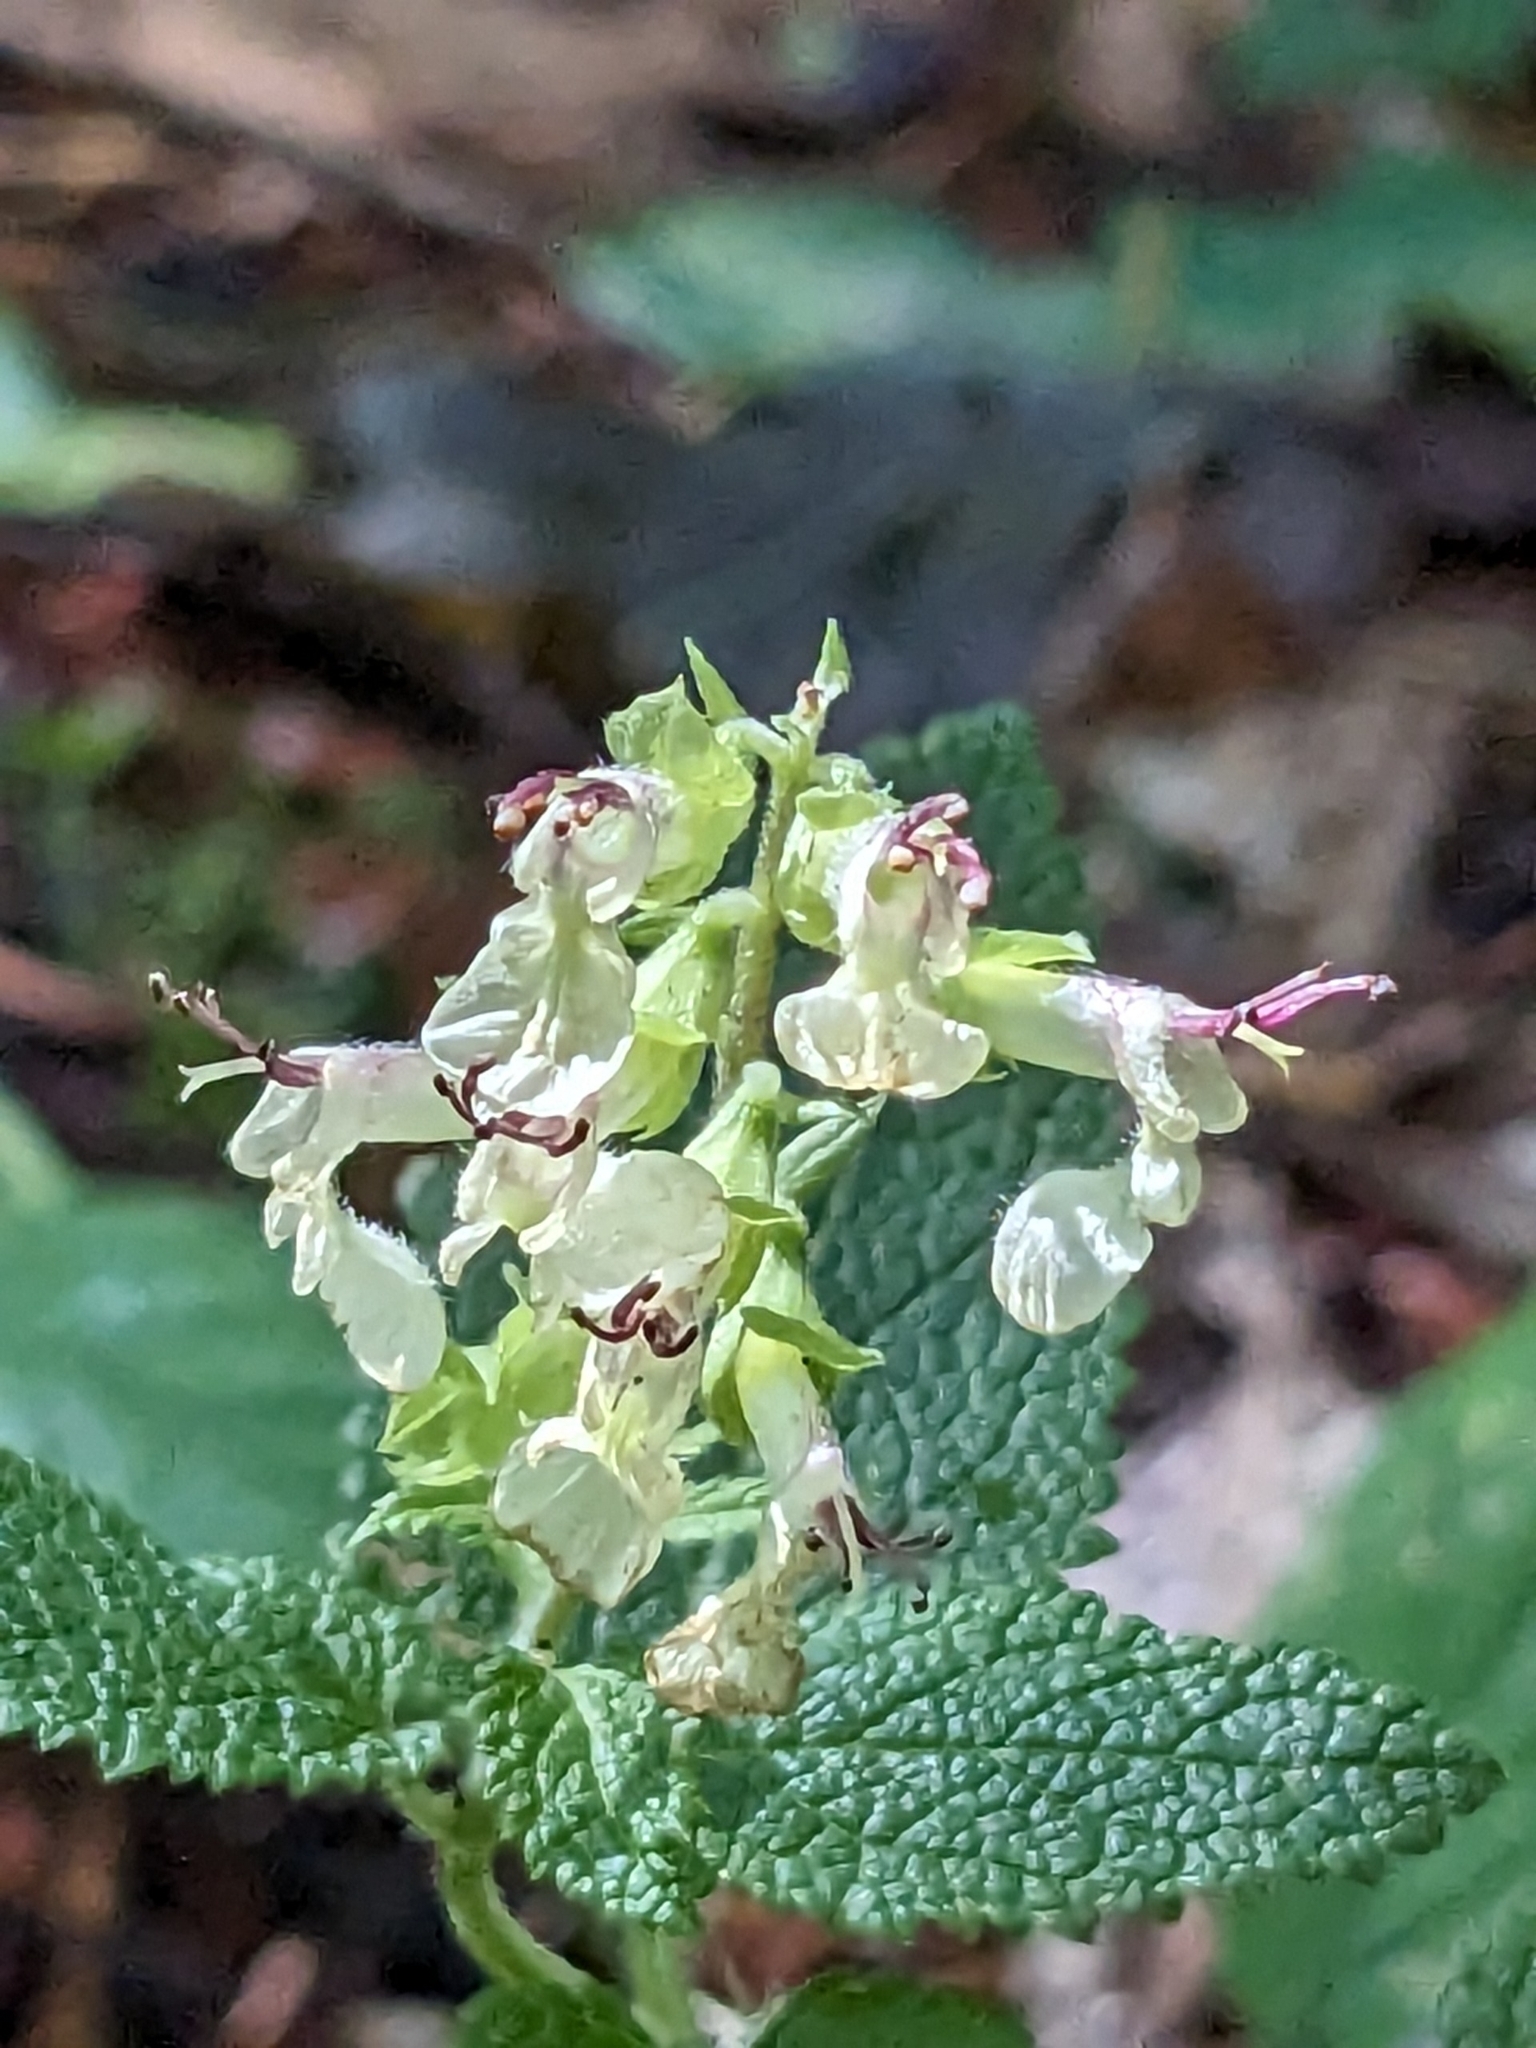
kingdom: Plantae
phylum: Tracheophyta
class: Magnoliopsida
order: Lamiales
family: Lamiaceae
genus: Teucrium
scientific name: Teucrium scorodonia
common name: Woodland germander
